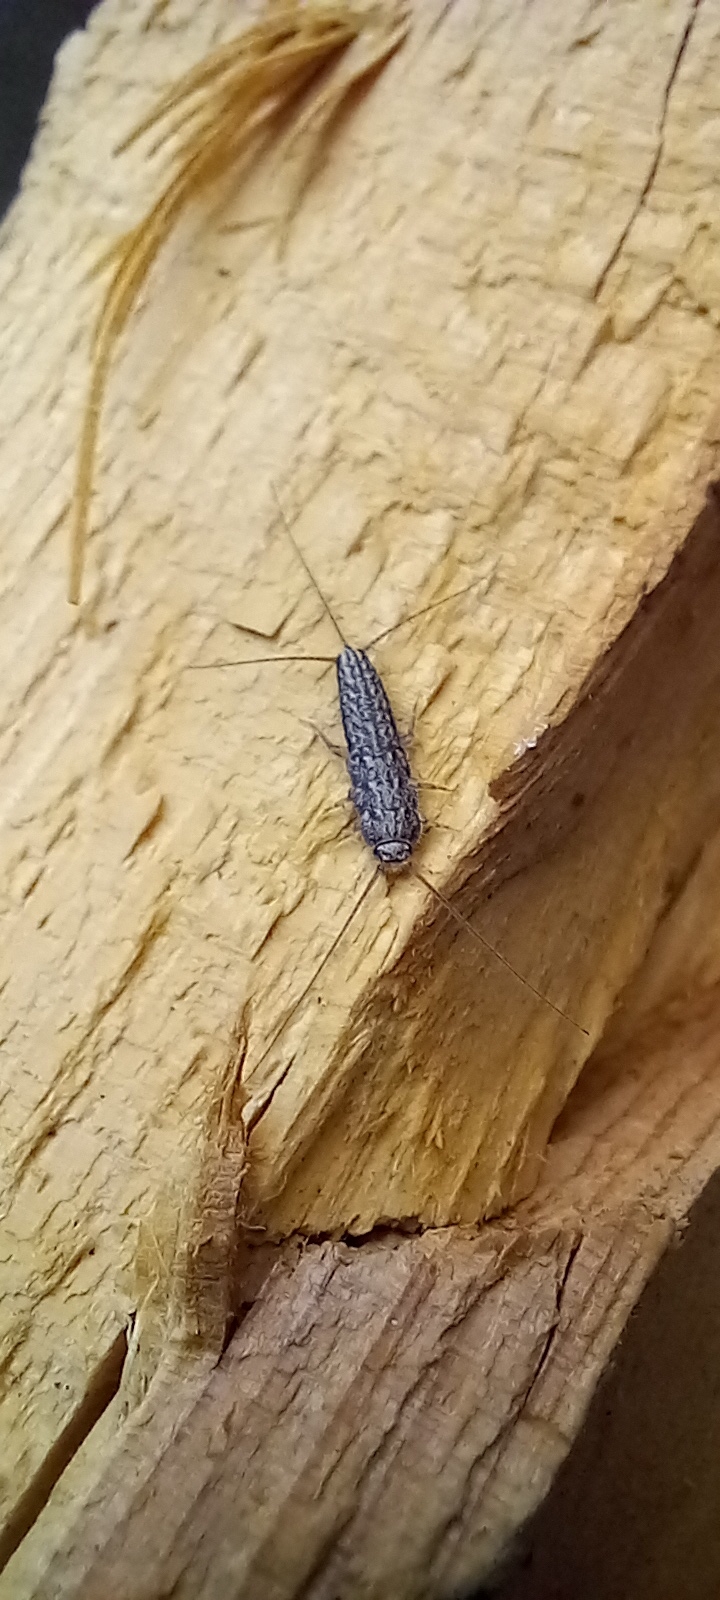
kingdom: Animalia
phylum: Arthropoda
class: Insecta
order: Zygentoma
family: Lepismatidae
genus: Ctenolepisma
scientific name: Ctenolepisma lineata
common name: Four-lined silverfish
